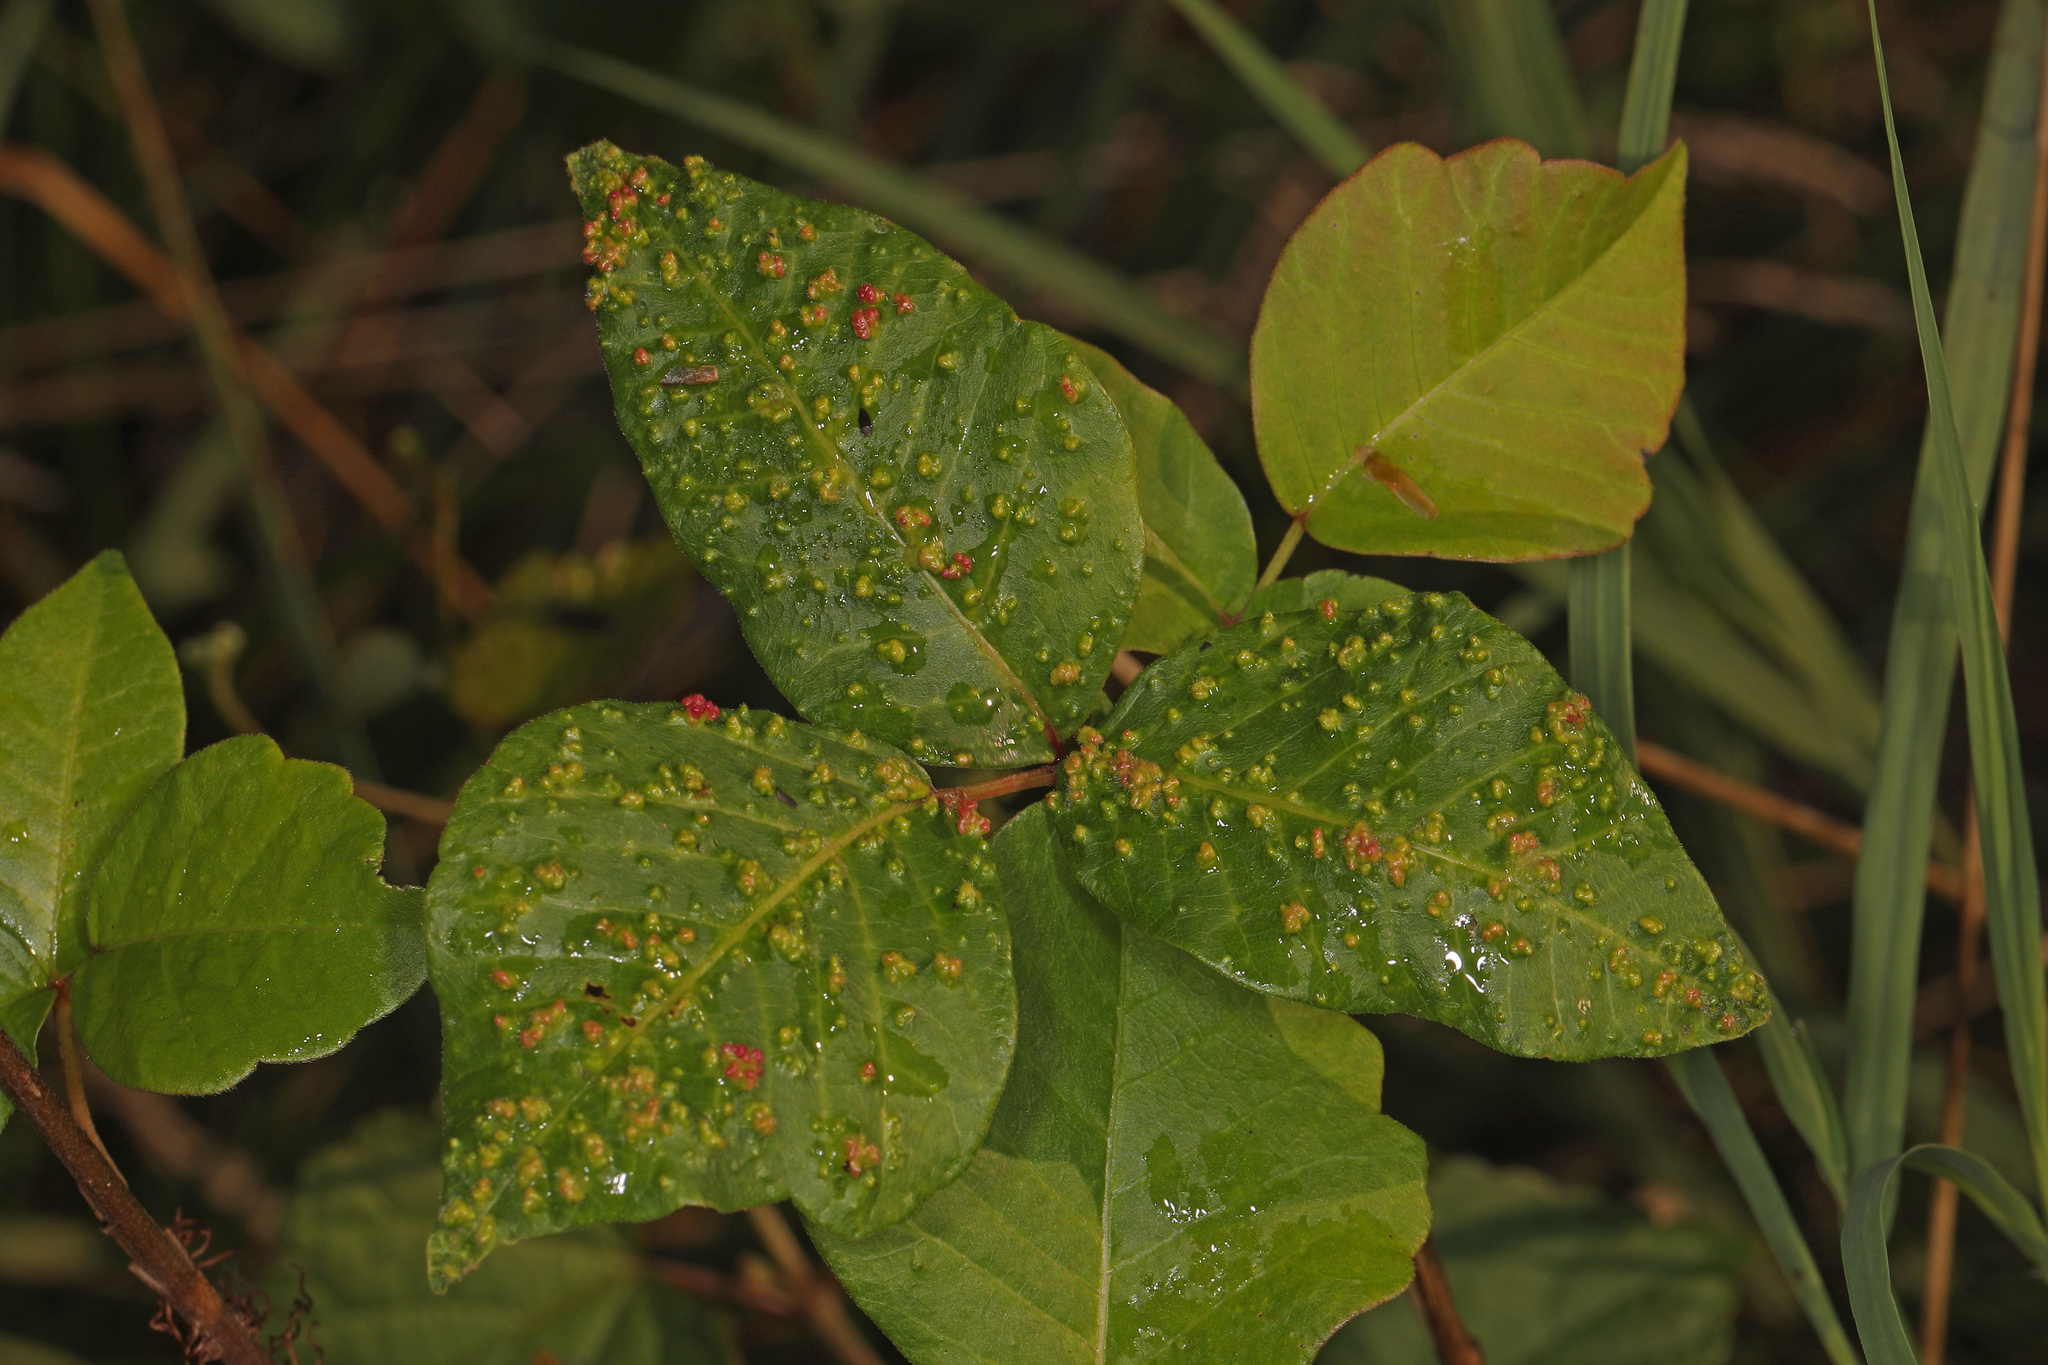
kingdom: Animalia
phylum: Arthropoda
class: Arachnida
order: Trombidiformes
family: Eriophyidae
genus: Aculops
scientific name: Aculops
